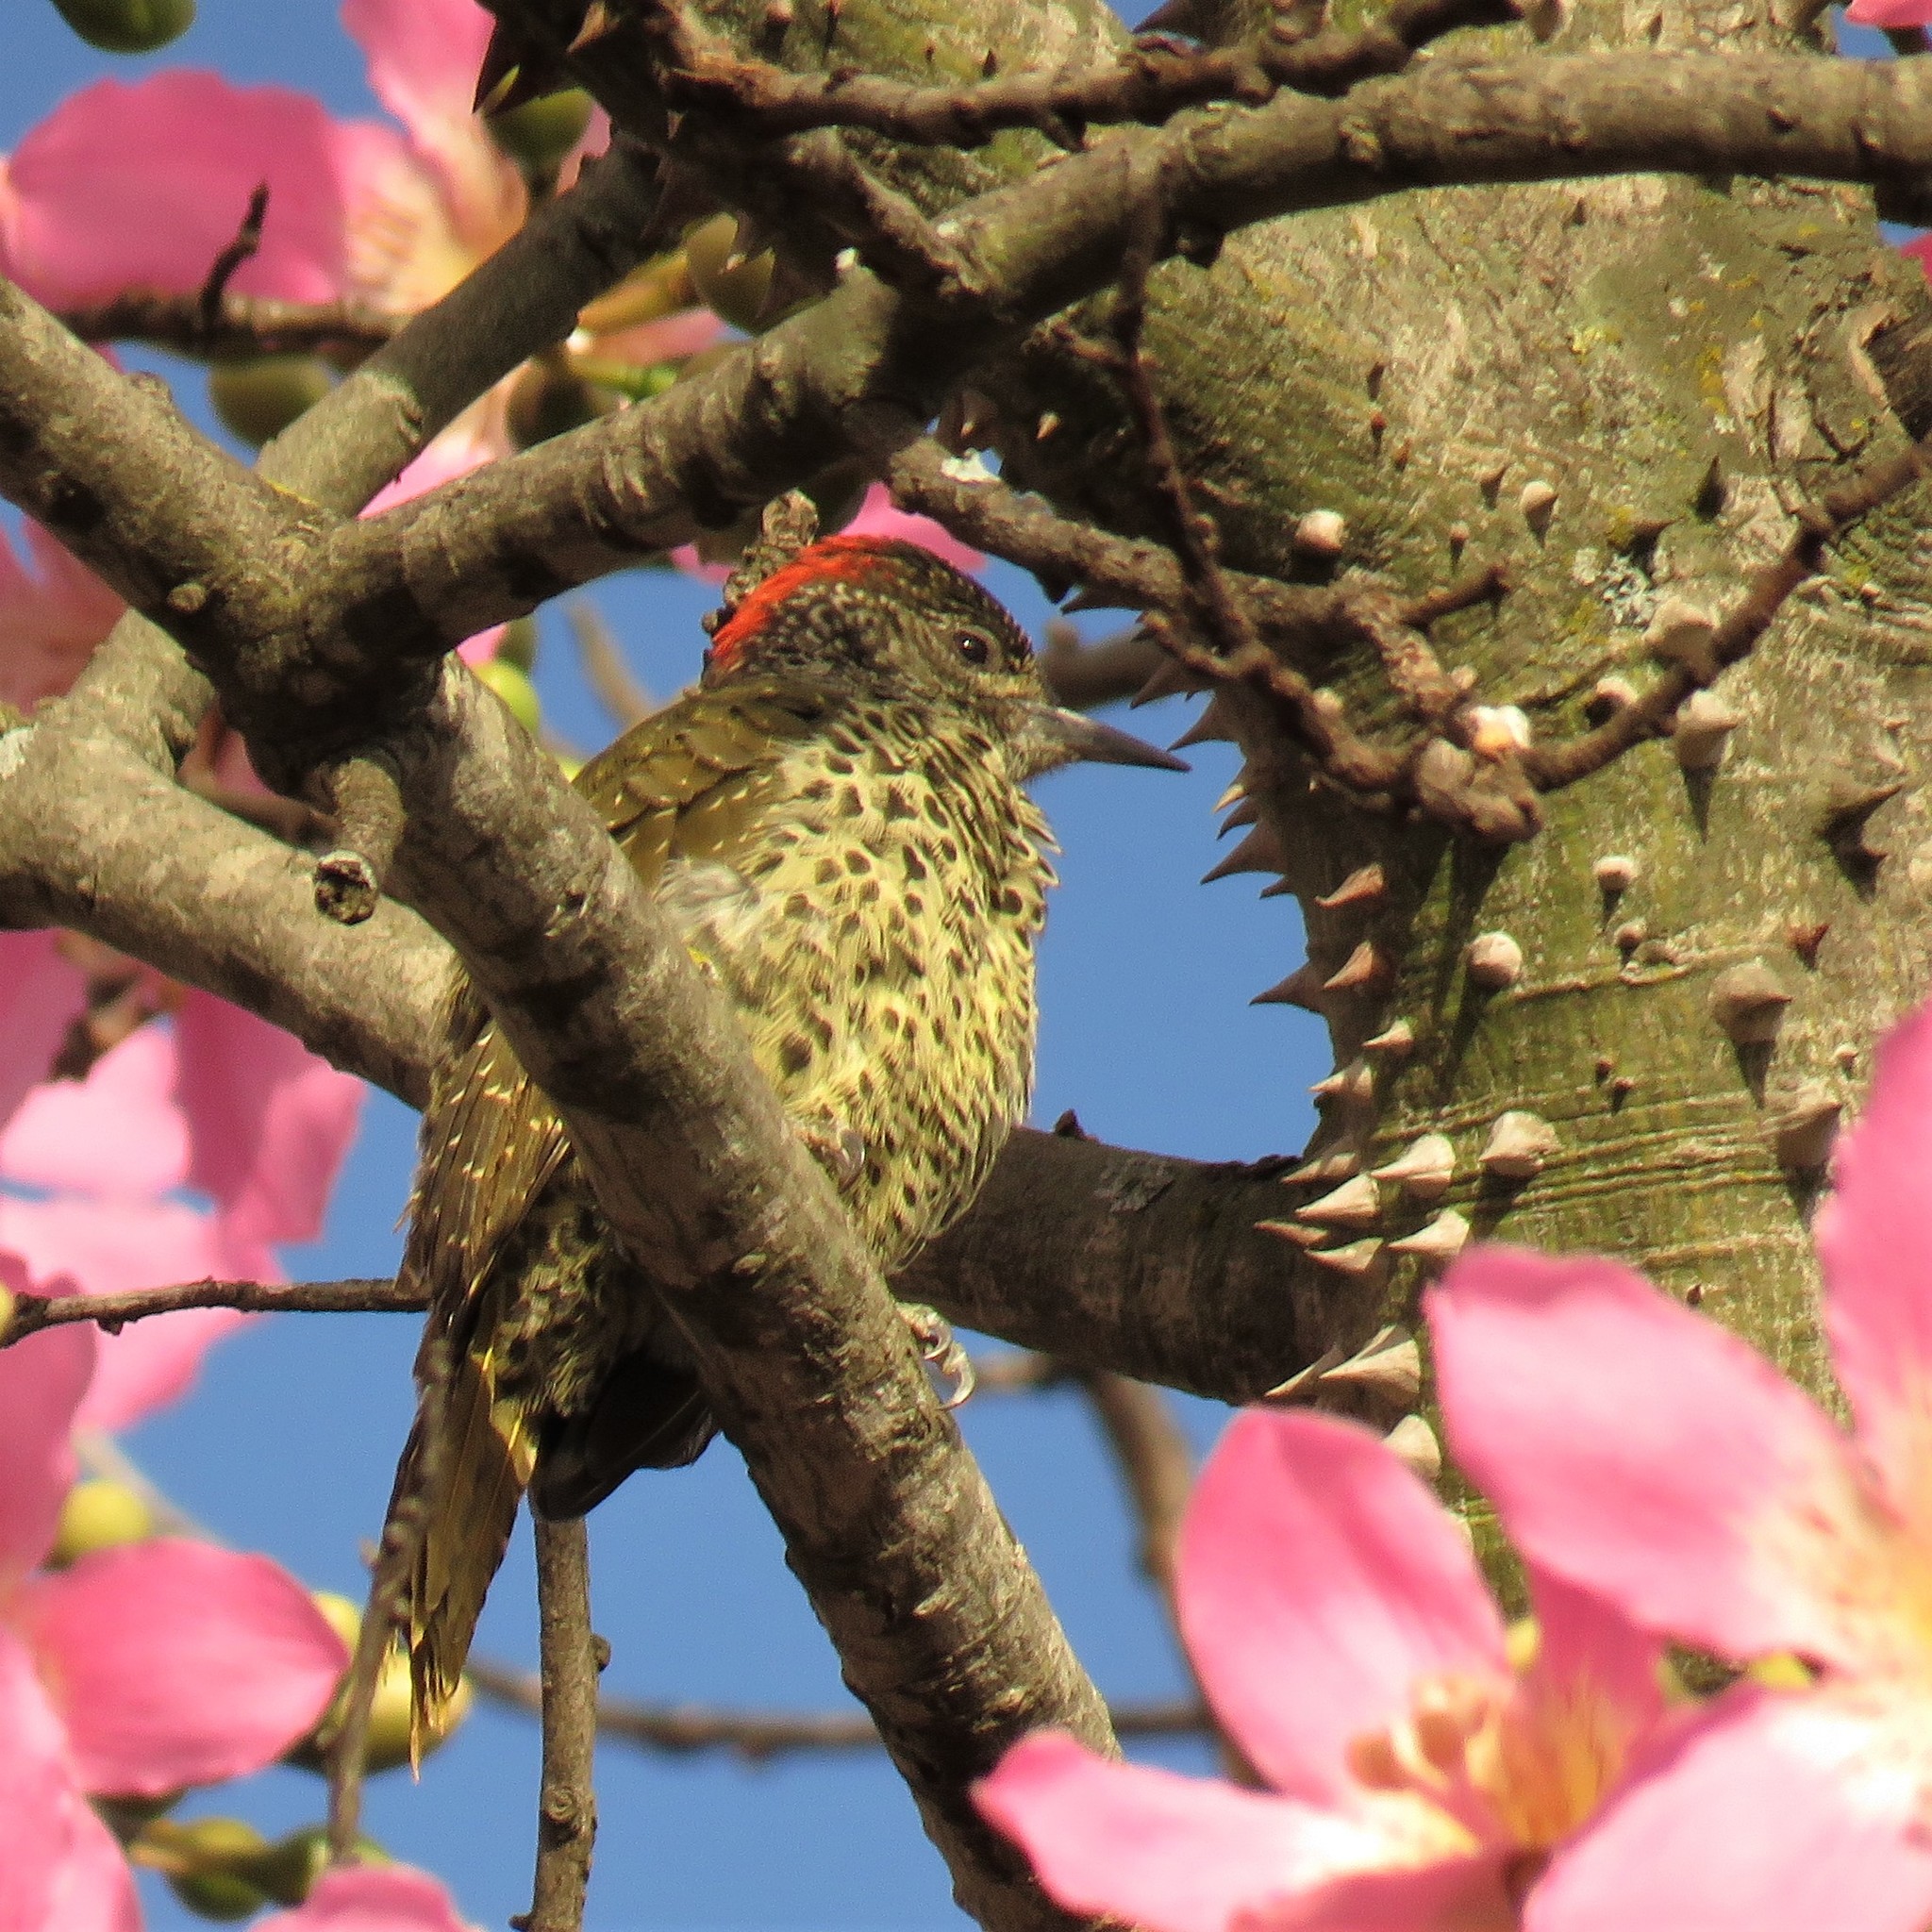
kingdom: Animalia
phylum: Chordata
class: Aves
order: Piciformes
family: Picidae
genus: Campethera
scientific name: Campethera notata
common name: Knysna woodpecker
